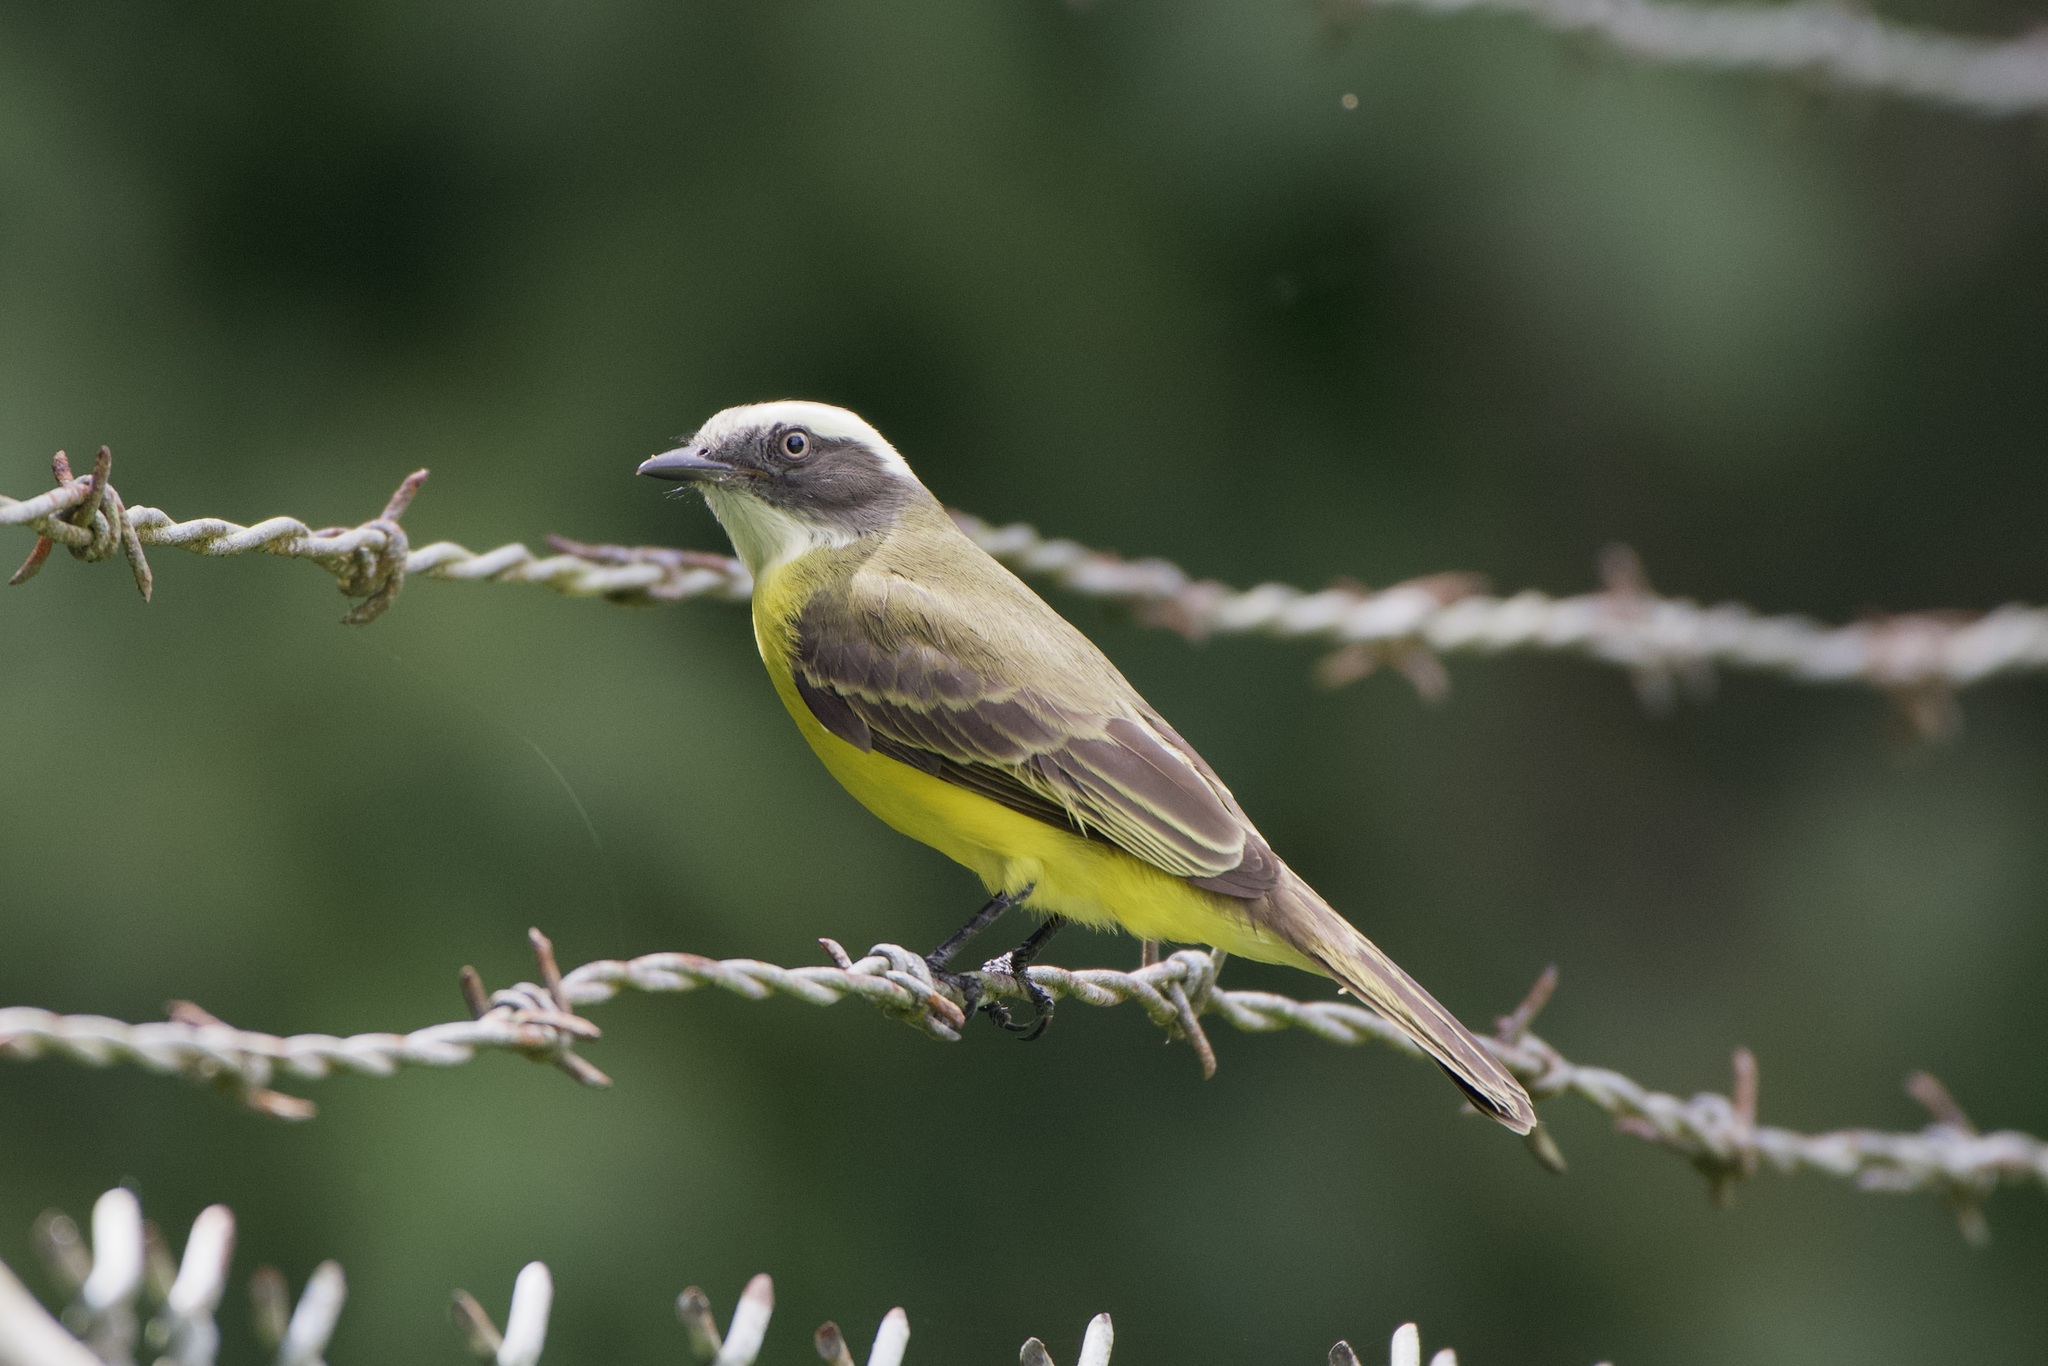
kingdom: Animalia
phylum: Chordata
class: Aves
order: Passeriformes
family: Tyrannidae
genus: Myiozetetes
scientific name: Myiozetetes similis
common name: Social flycatcher
